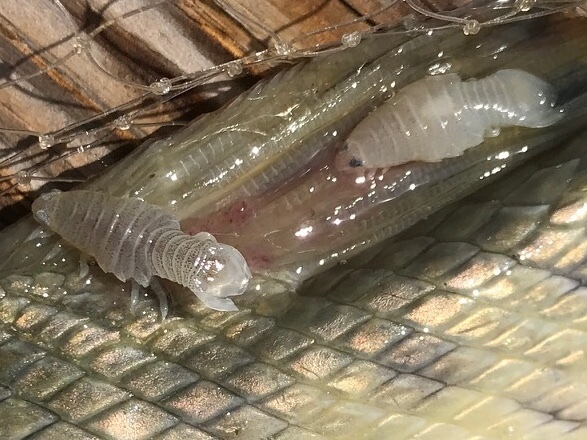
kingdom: Animalia
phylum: Arthropoda
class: Malacostraca
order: Isopoda
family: Cymothoidae
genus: Anilocra
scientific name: Anilocra acuta
